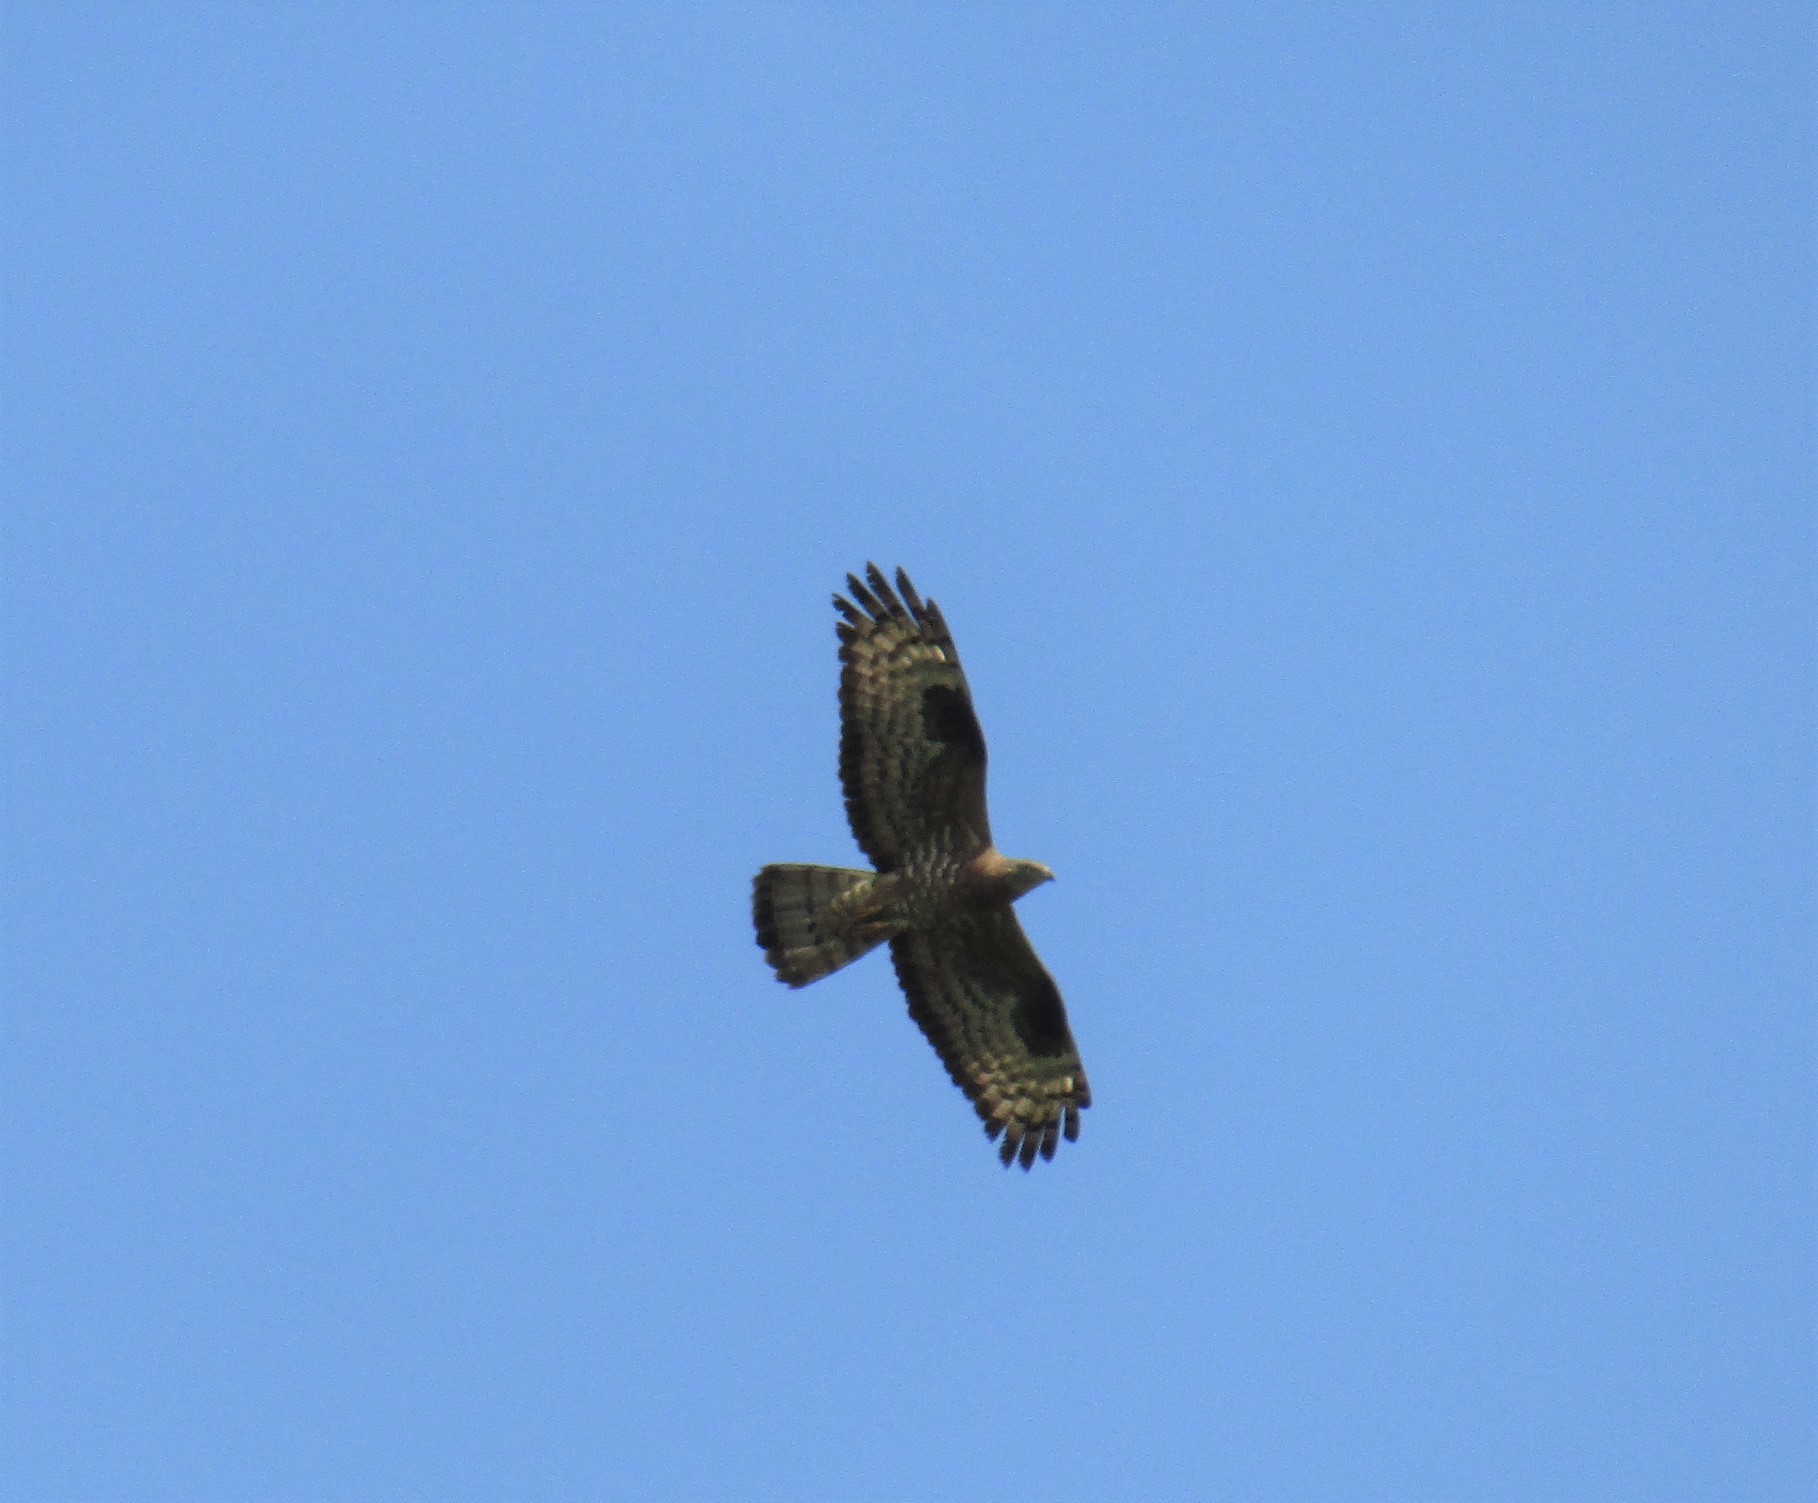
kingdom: Animalia
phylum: Chordata
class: Aves
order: Accipitriformes
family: Accipitridae
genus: Pernis
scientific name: Pernis apivorus
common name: European honey buzzard
